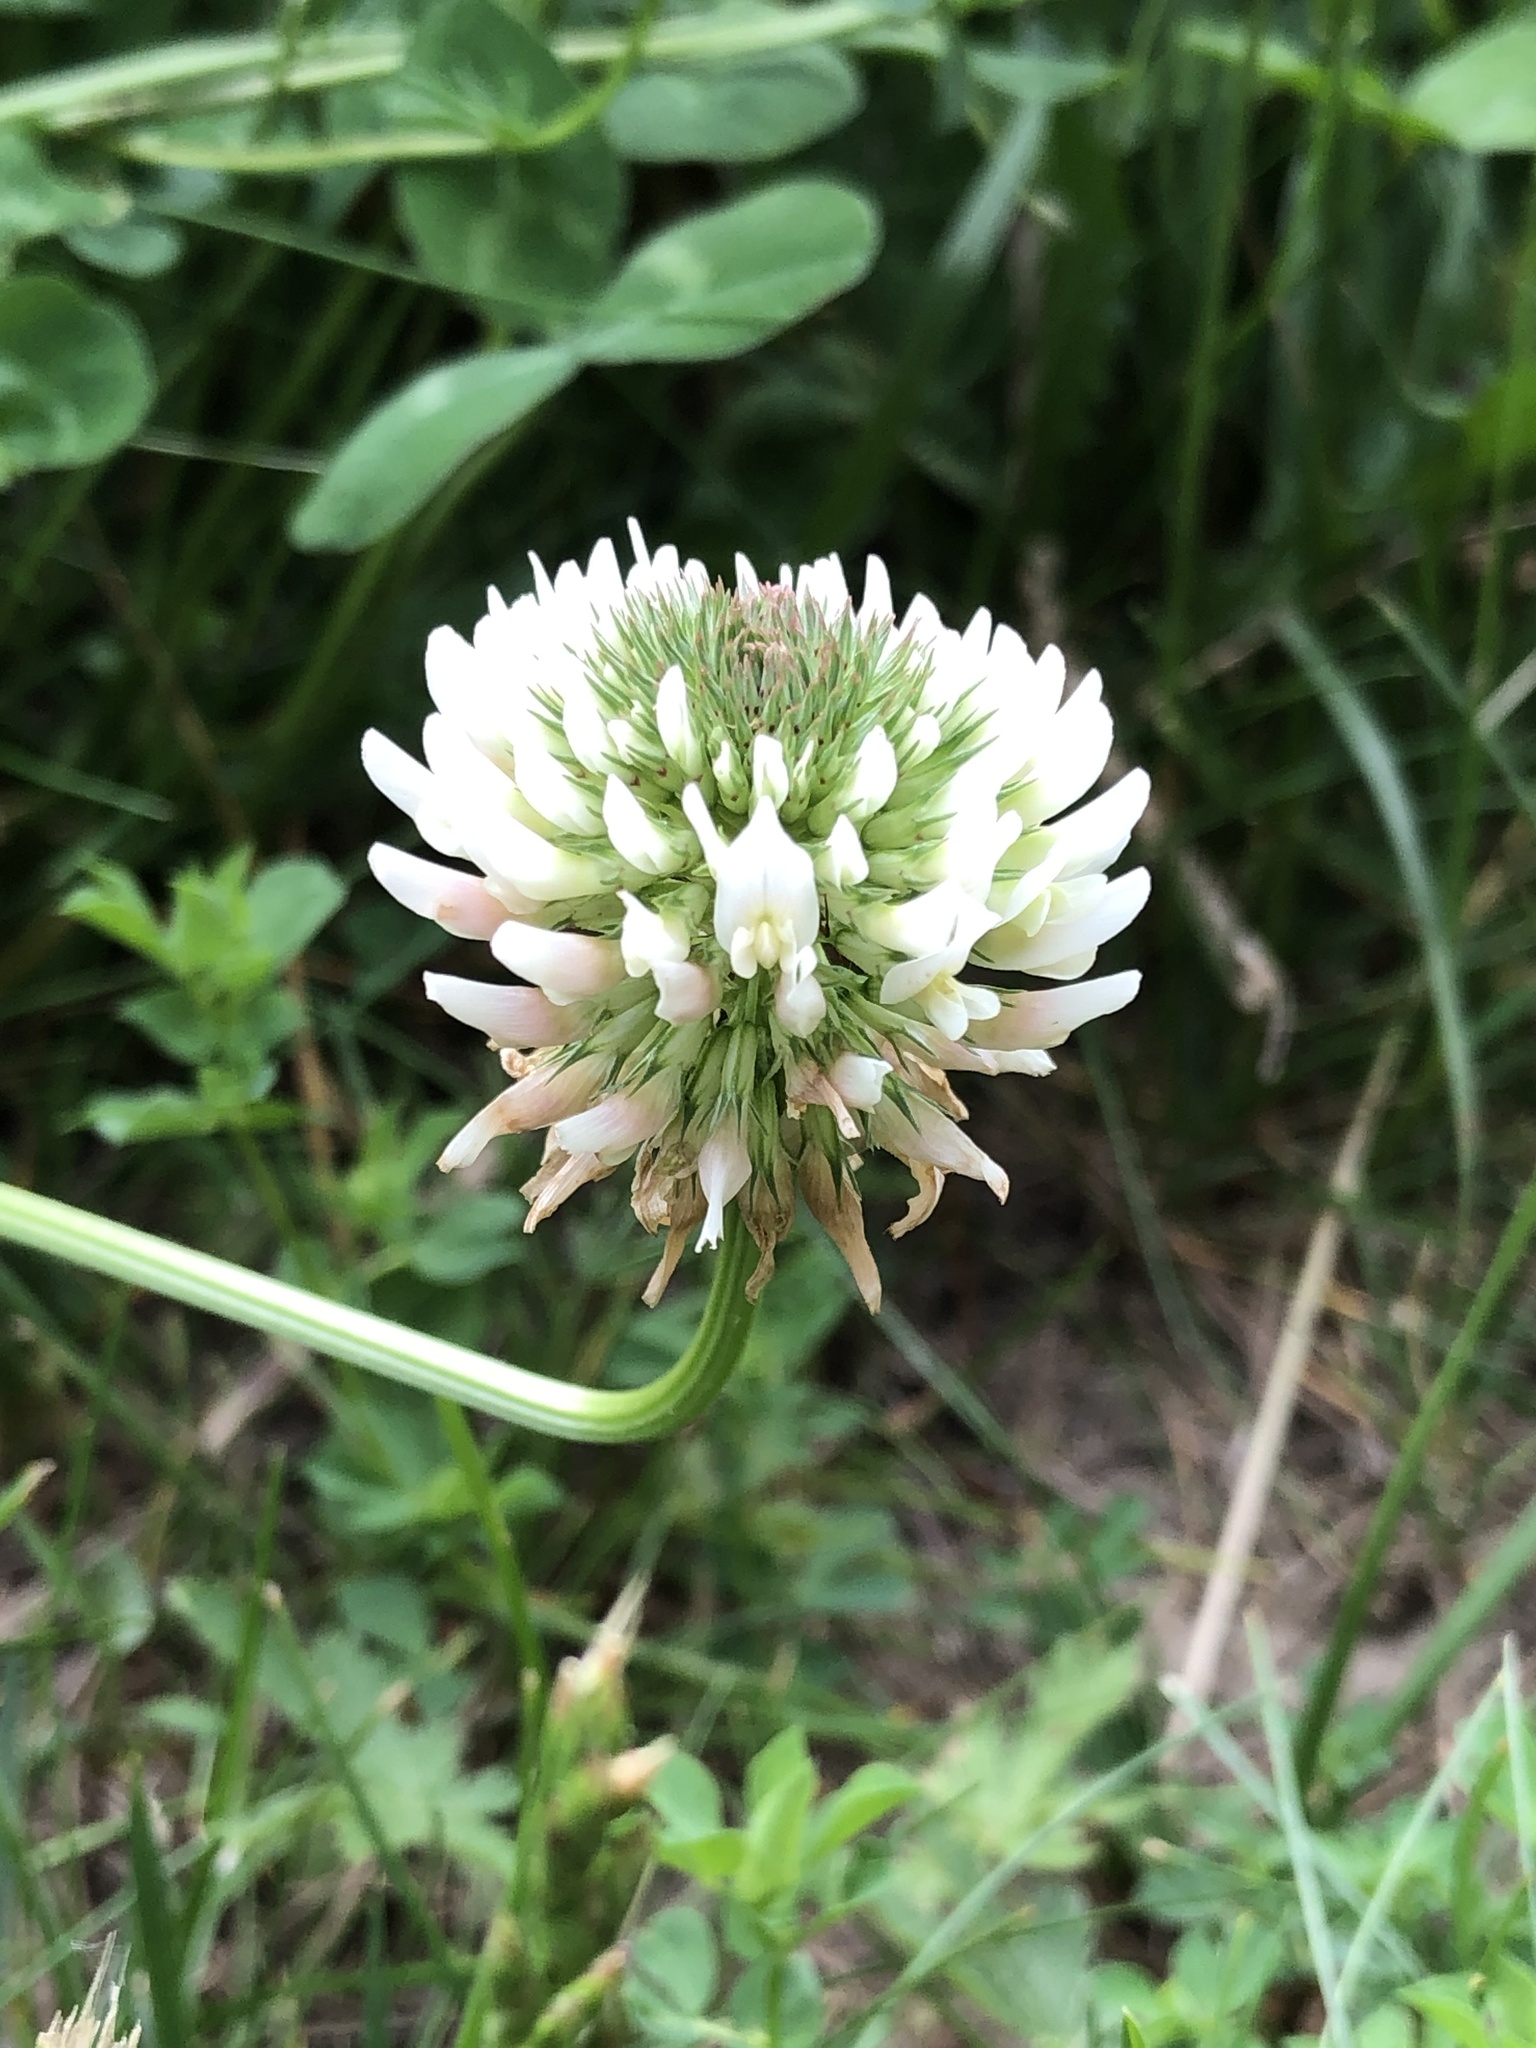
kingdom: Plantae
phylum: Tracheophyta
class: Magnoliopsida
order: Fabales
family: Fabaceae
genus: Trifolium
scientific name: Trifolium repens
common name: White clover
